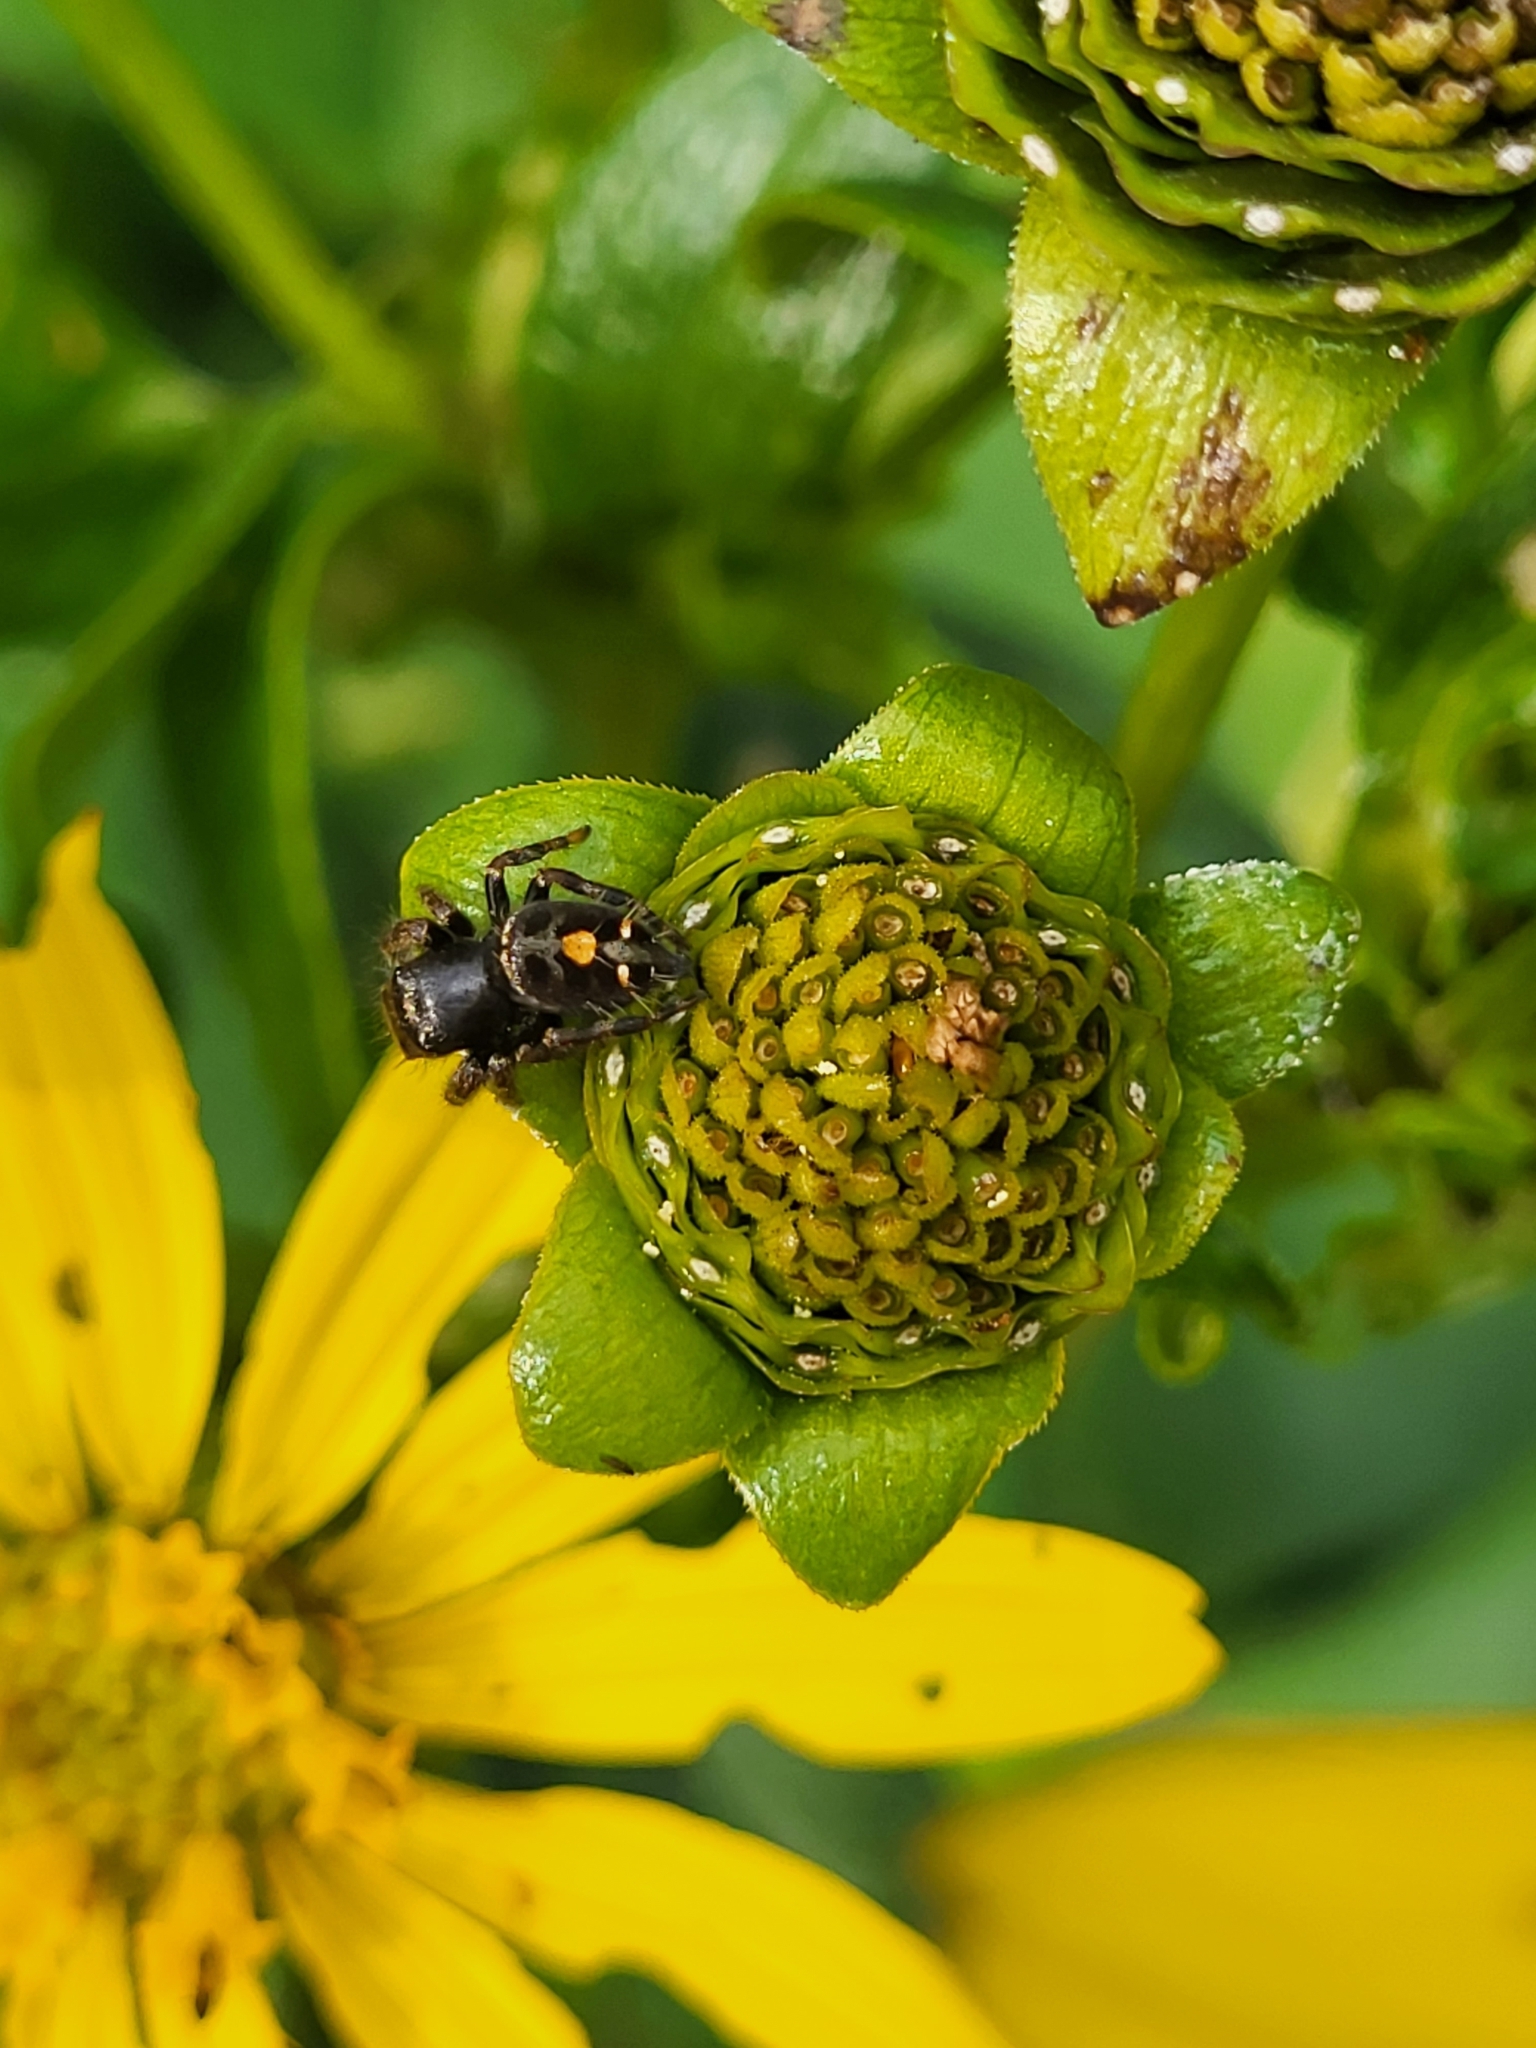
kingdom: Animalia
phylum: Arthropoda
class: Arachnida
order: Araneae
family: Salticidae
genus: Phidippus
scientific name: Phidippus audax
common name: Bold jumper
